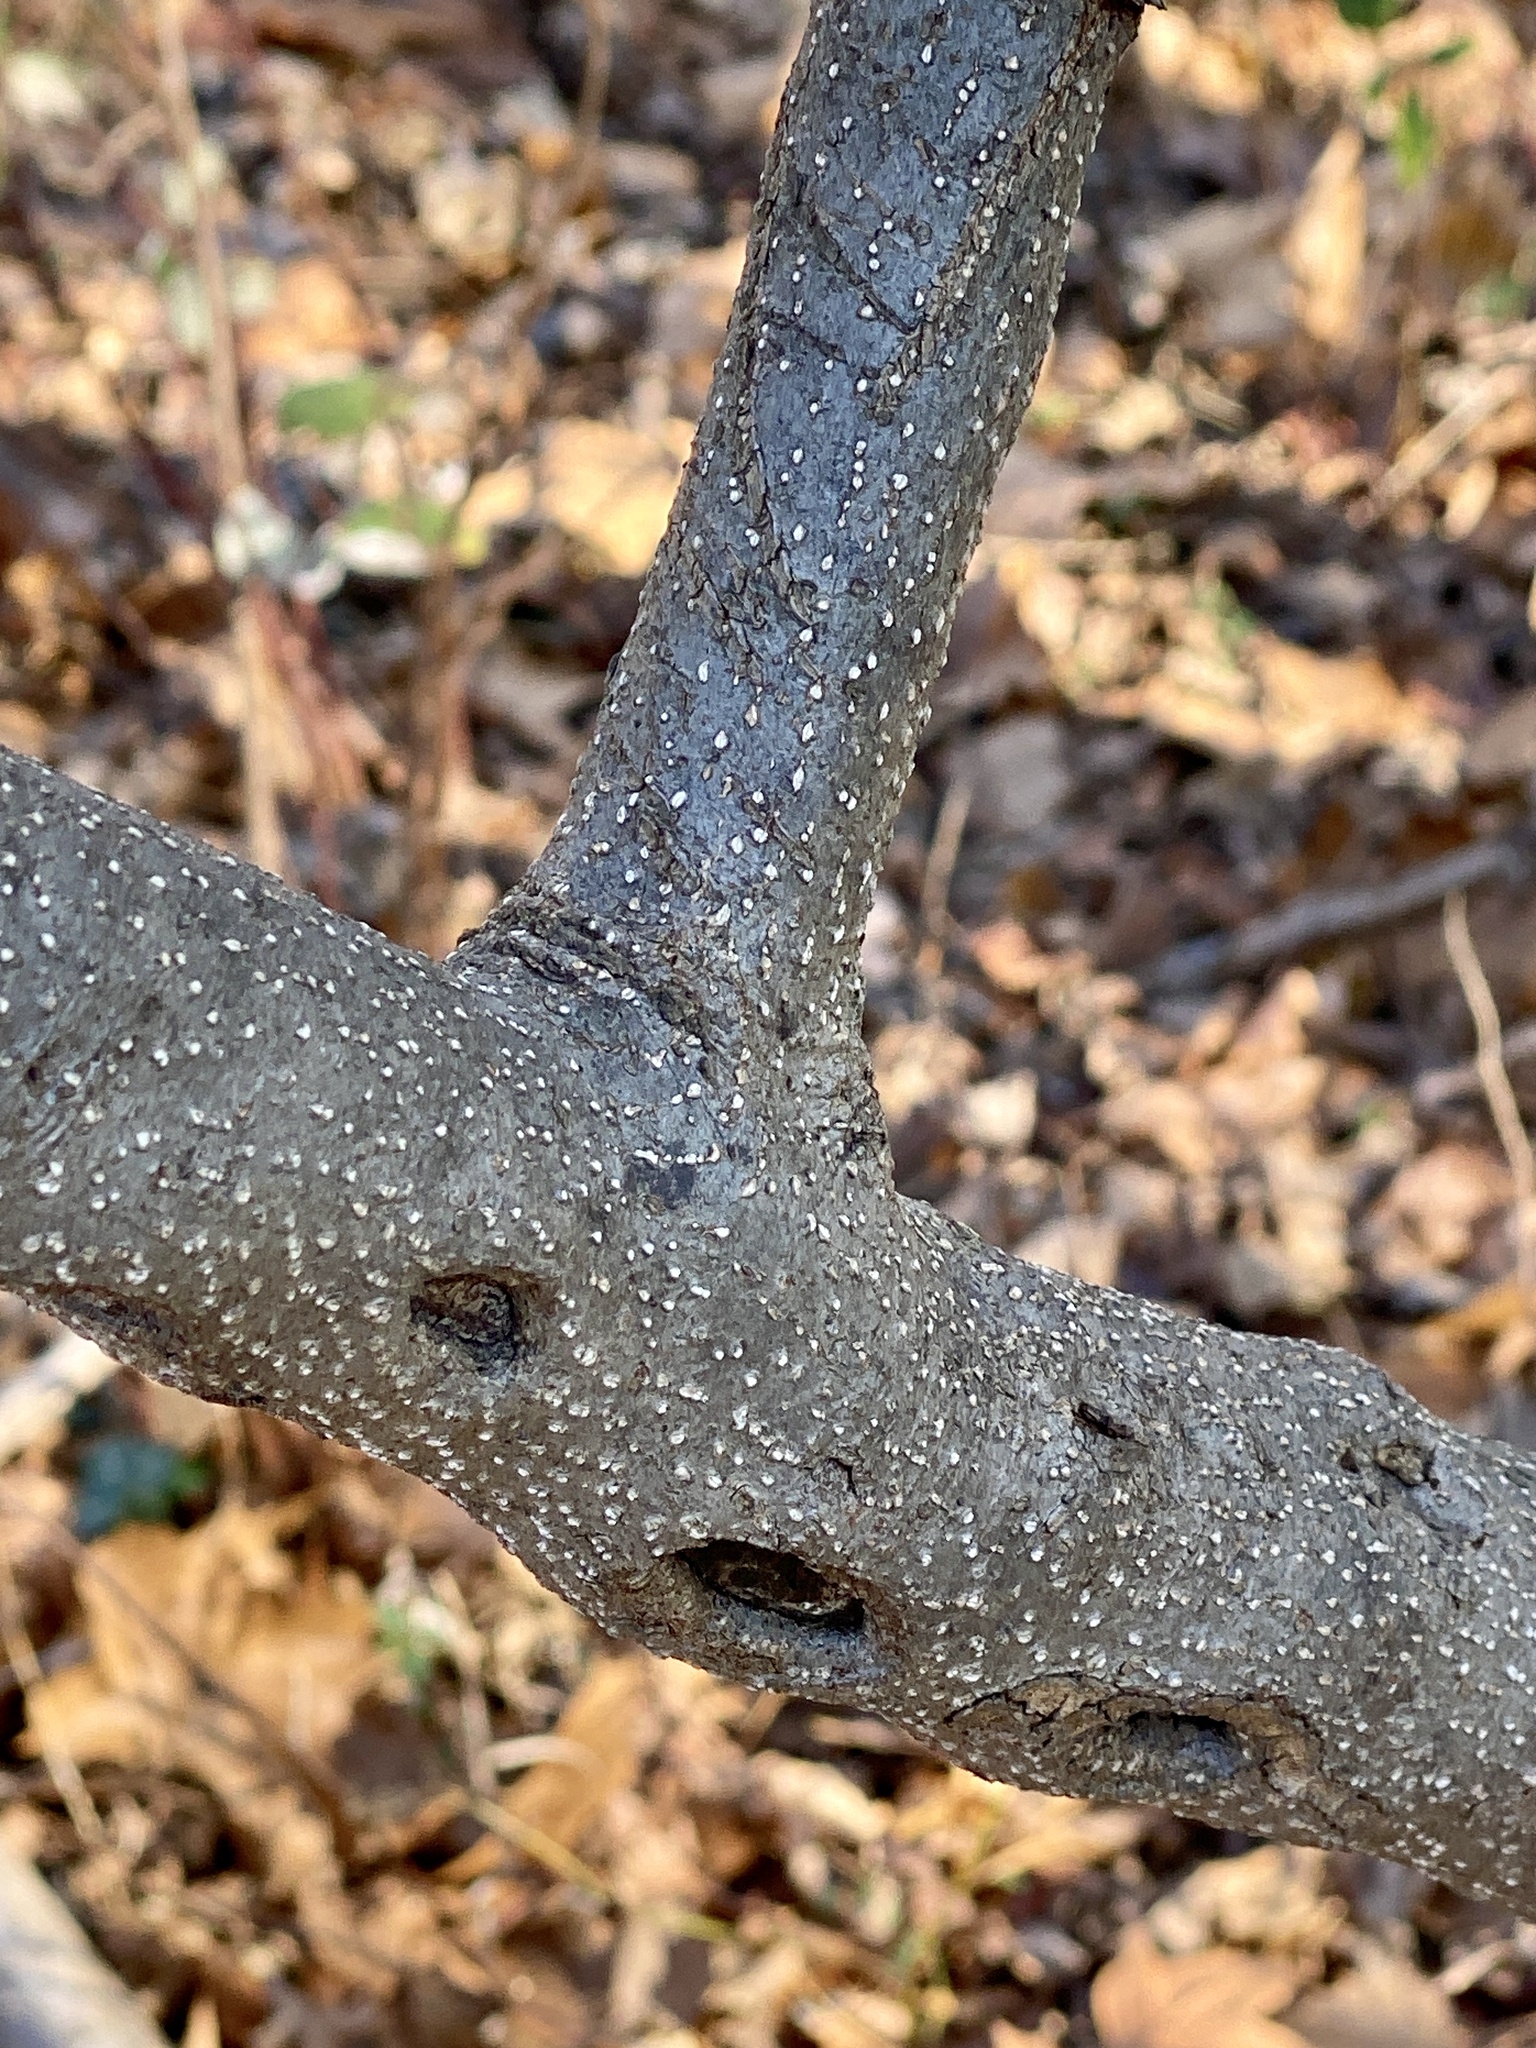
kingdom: Plantae
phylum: Tracheophyta
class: Magnoliopsida
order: Laurales
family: Lauraceae
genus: Lindera
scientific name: Lindera benzoin
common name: Spicebush
